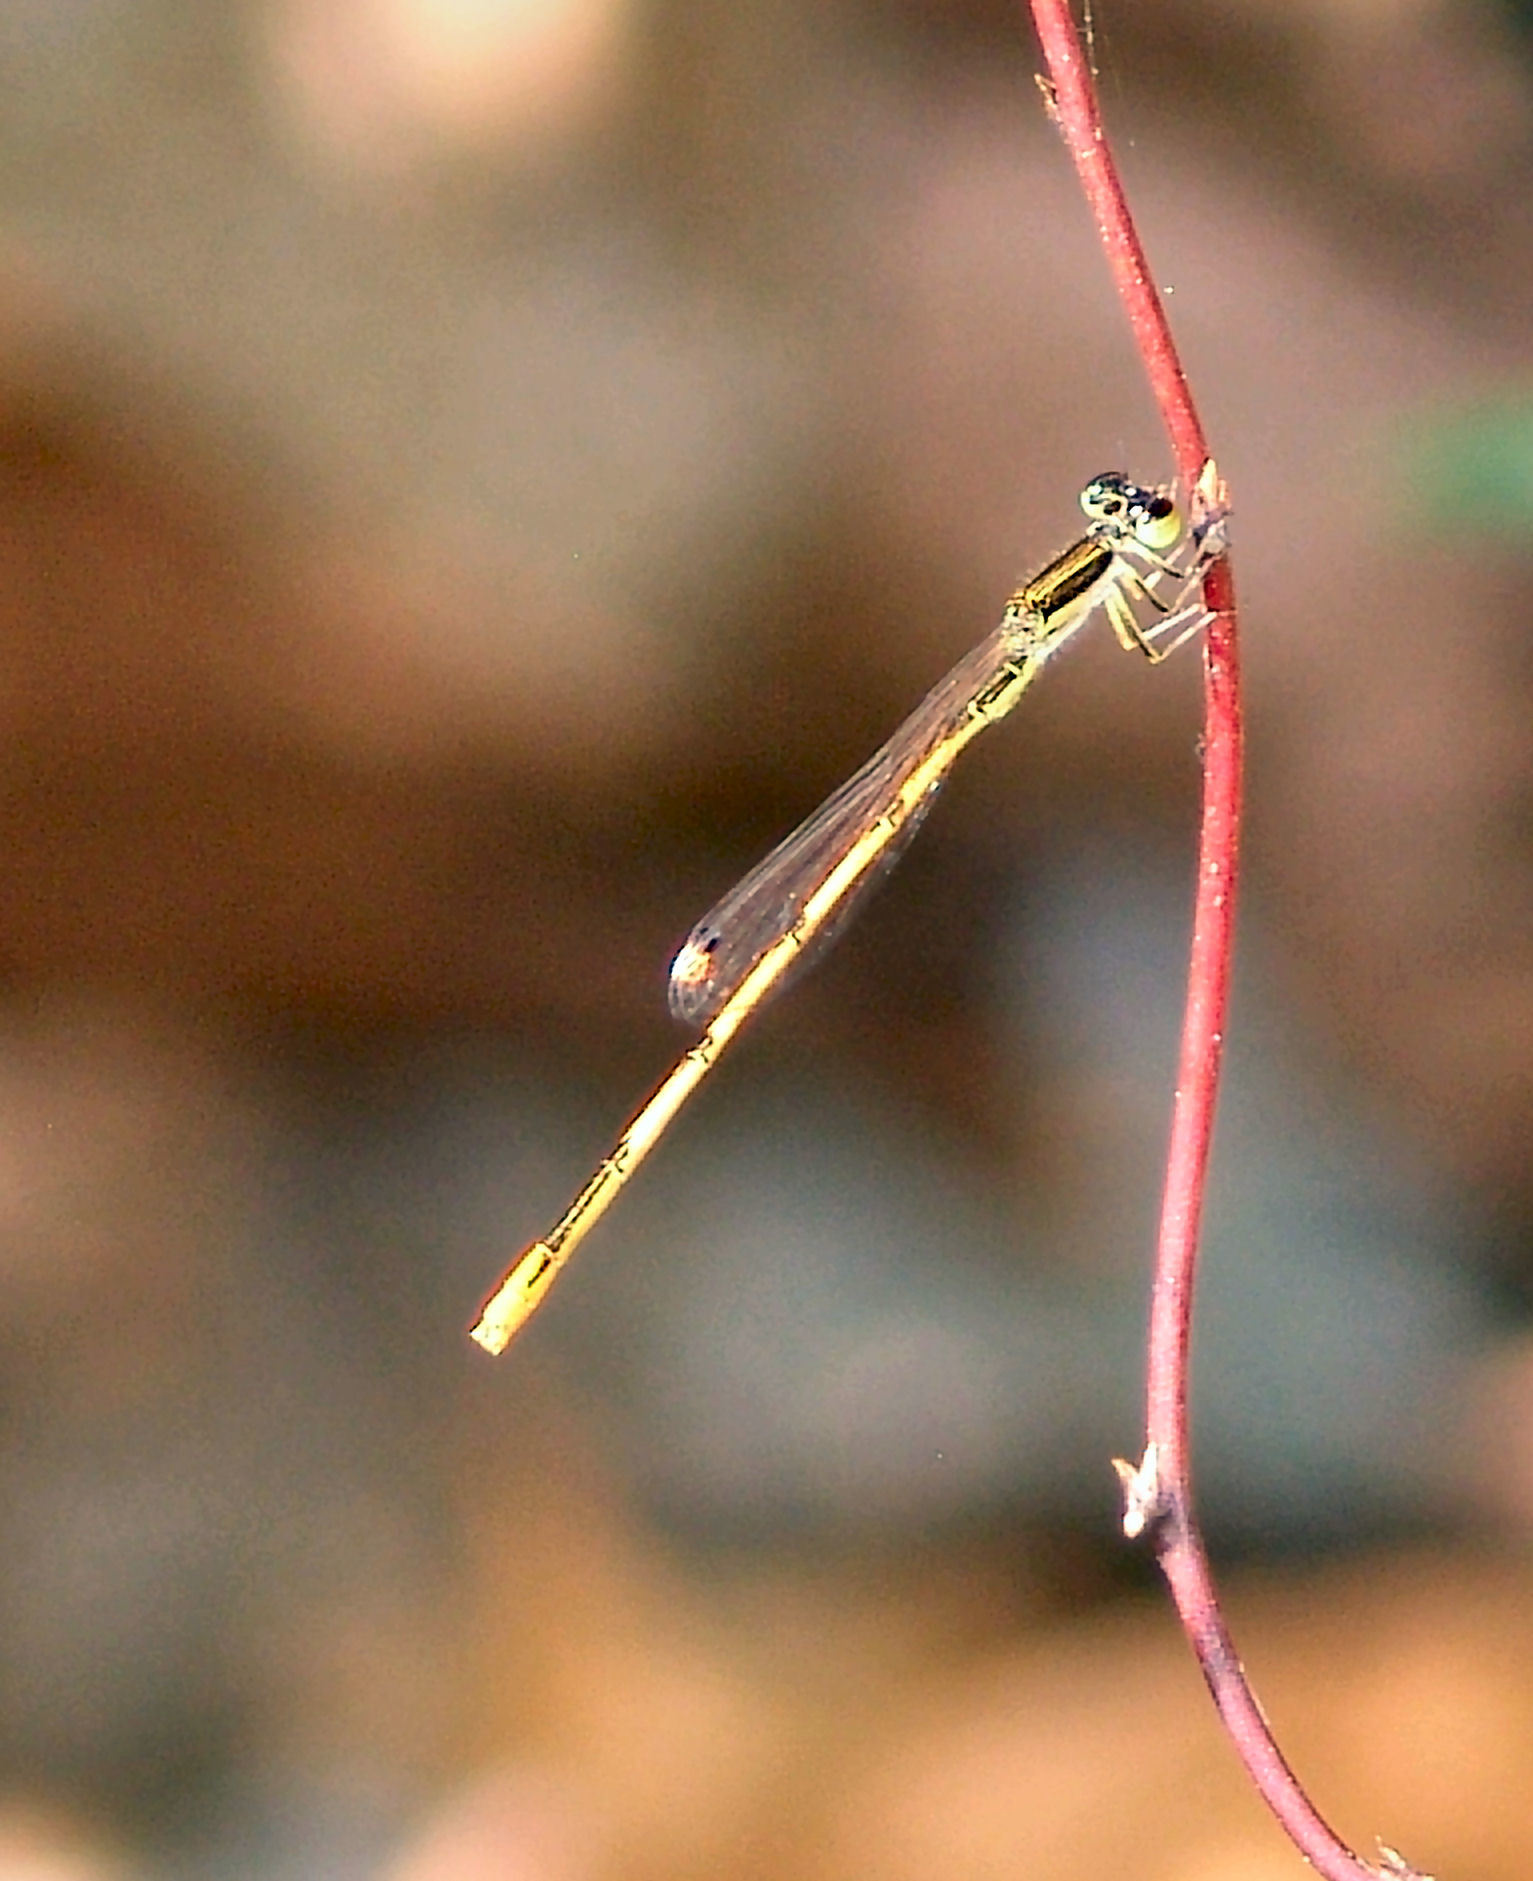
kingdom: Animalia
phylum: Arthropoda
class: Insecta
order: Odonata
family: Coenagrionidae
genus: Ischnura
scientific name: Ischnura hastata
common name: Citrine forktail
